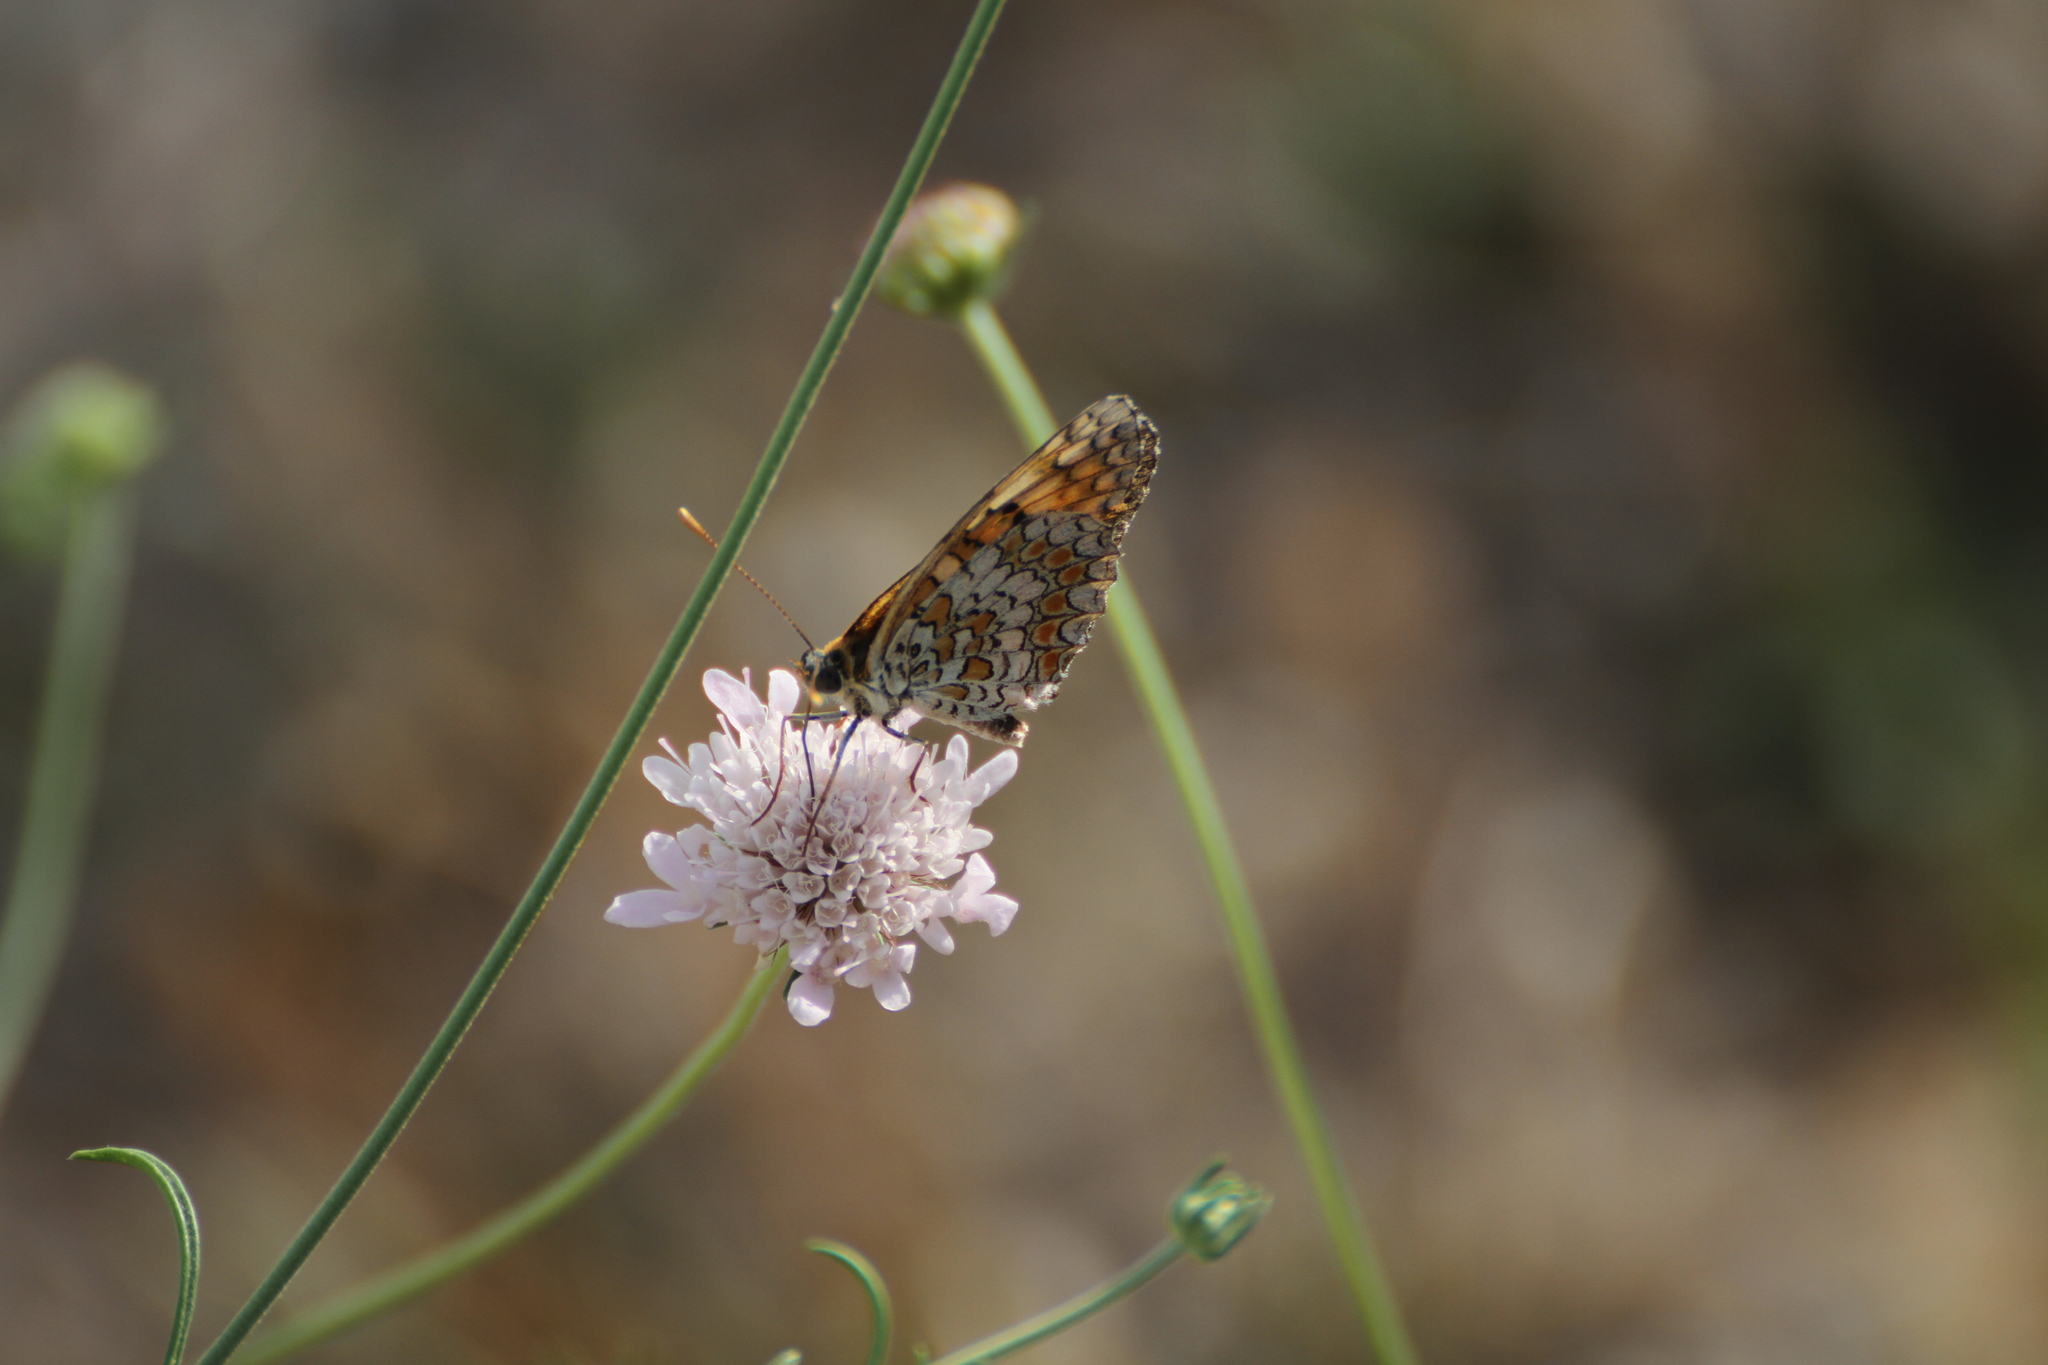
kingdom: Animalia
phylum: Arthropoda
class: Insecta
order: Lepidoptera
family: Nymphalidae
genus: Melitaea
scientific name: Melitaea phoebe
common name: Knapweed fritillary
